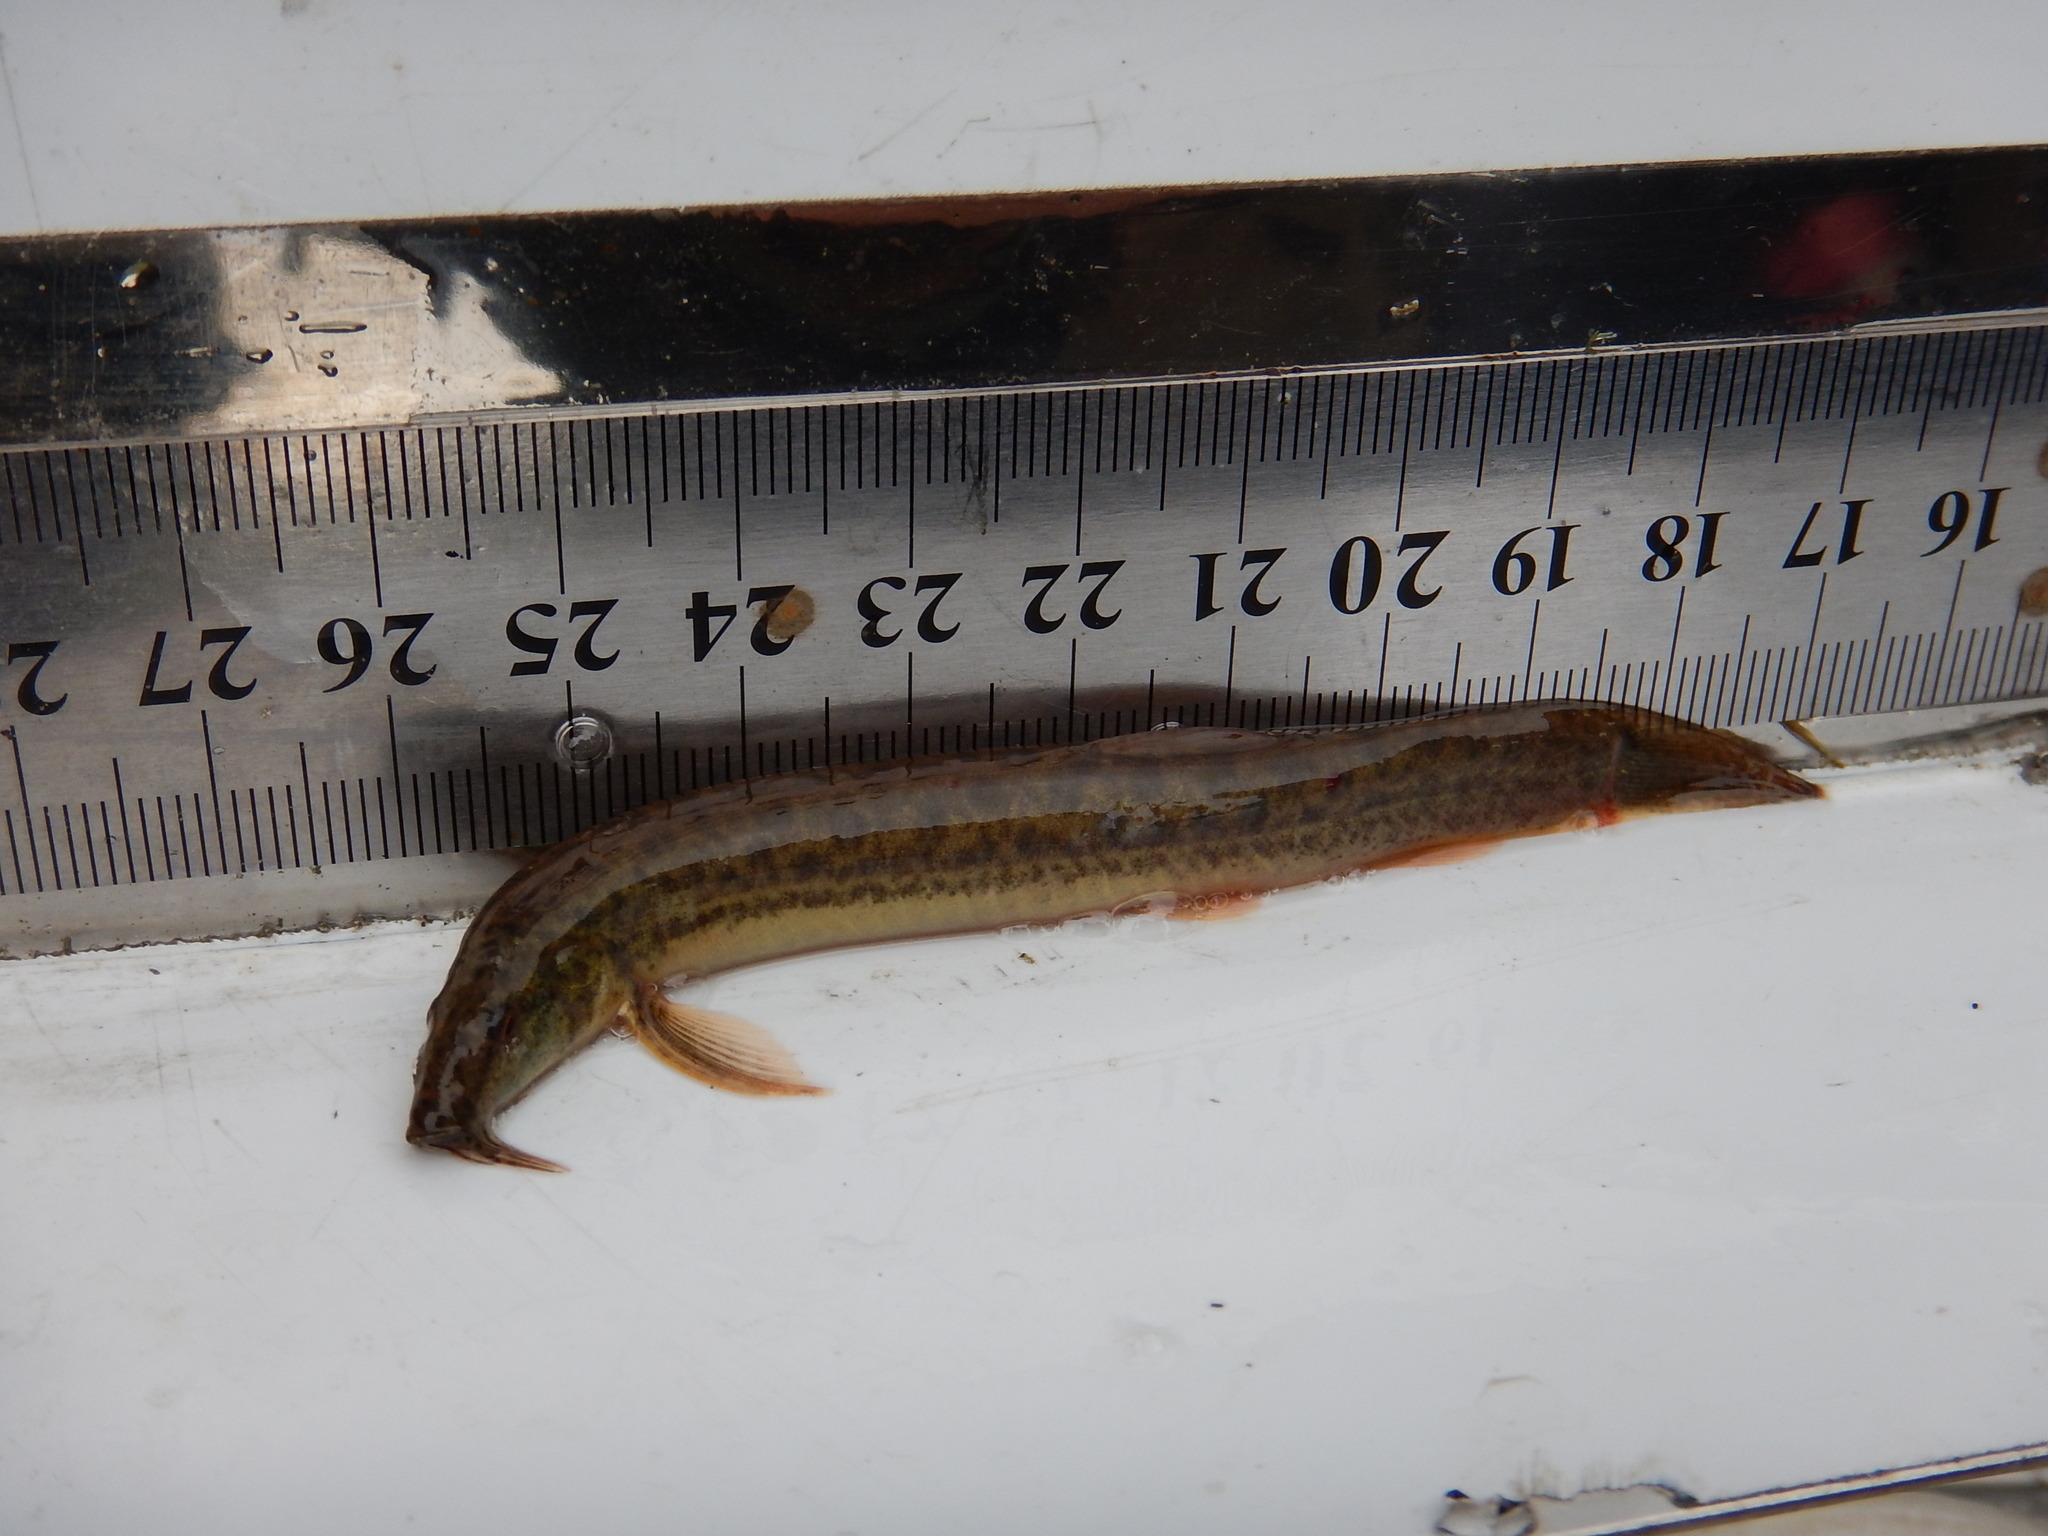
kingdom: Animalia
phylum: Chordata
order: Cypriniformes
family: Cobitidae
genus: Misgurnus
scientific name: Misgurnus anguillicaudatus
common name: Oriental weatherfish
